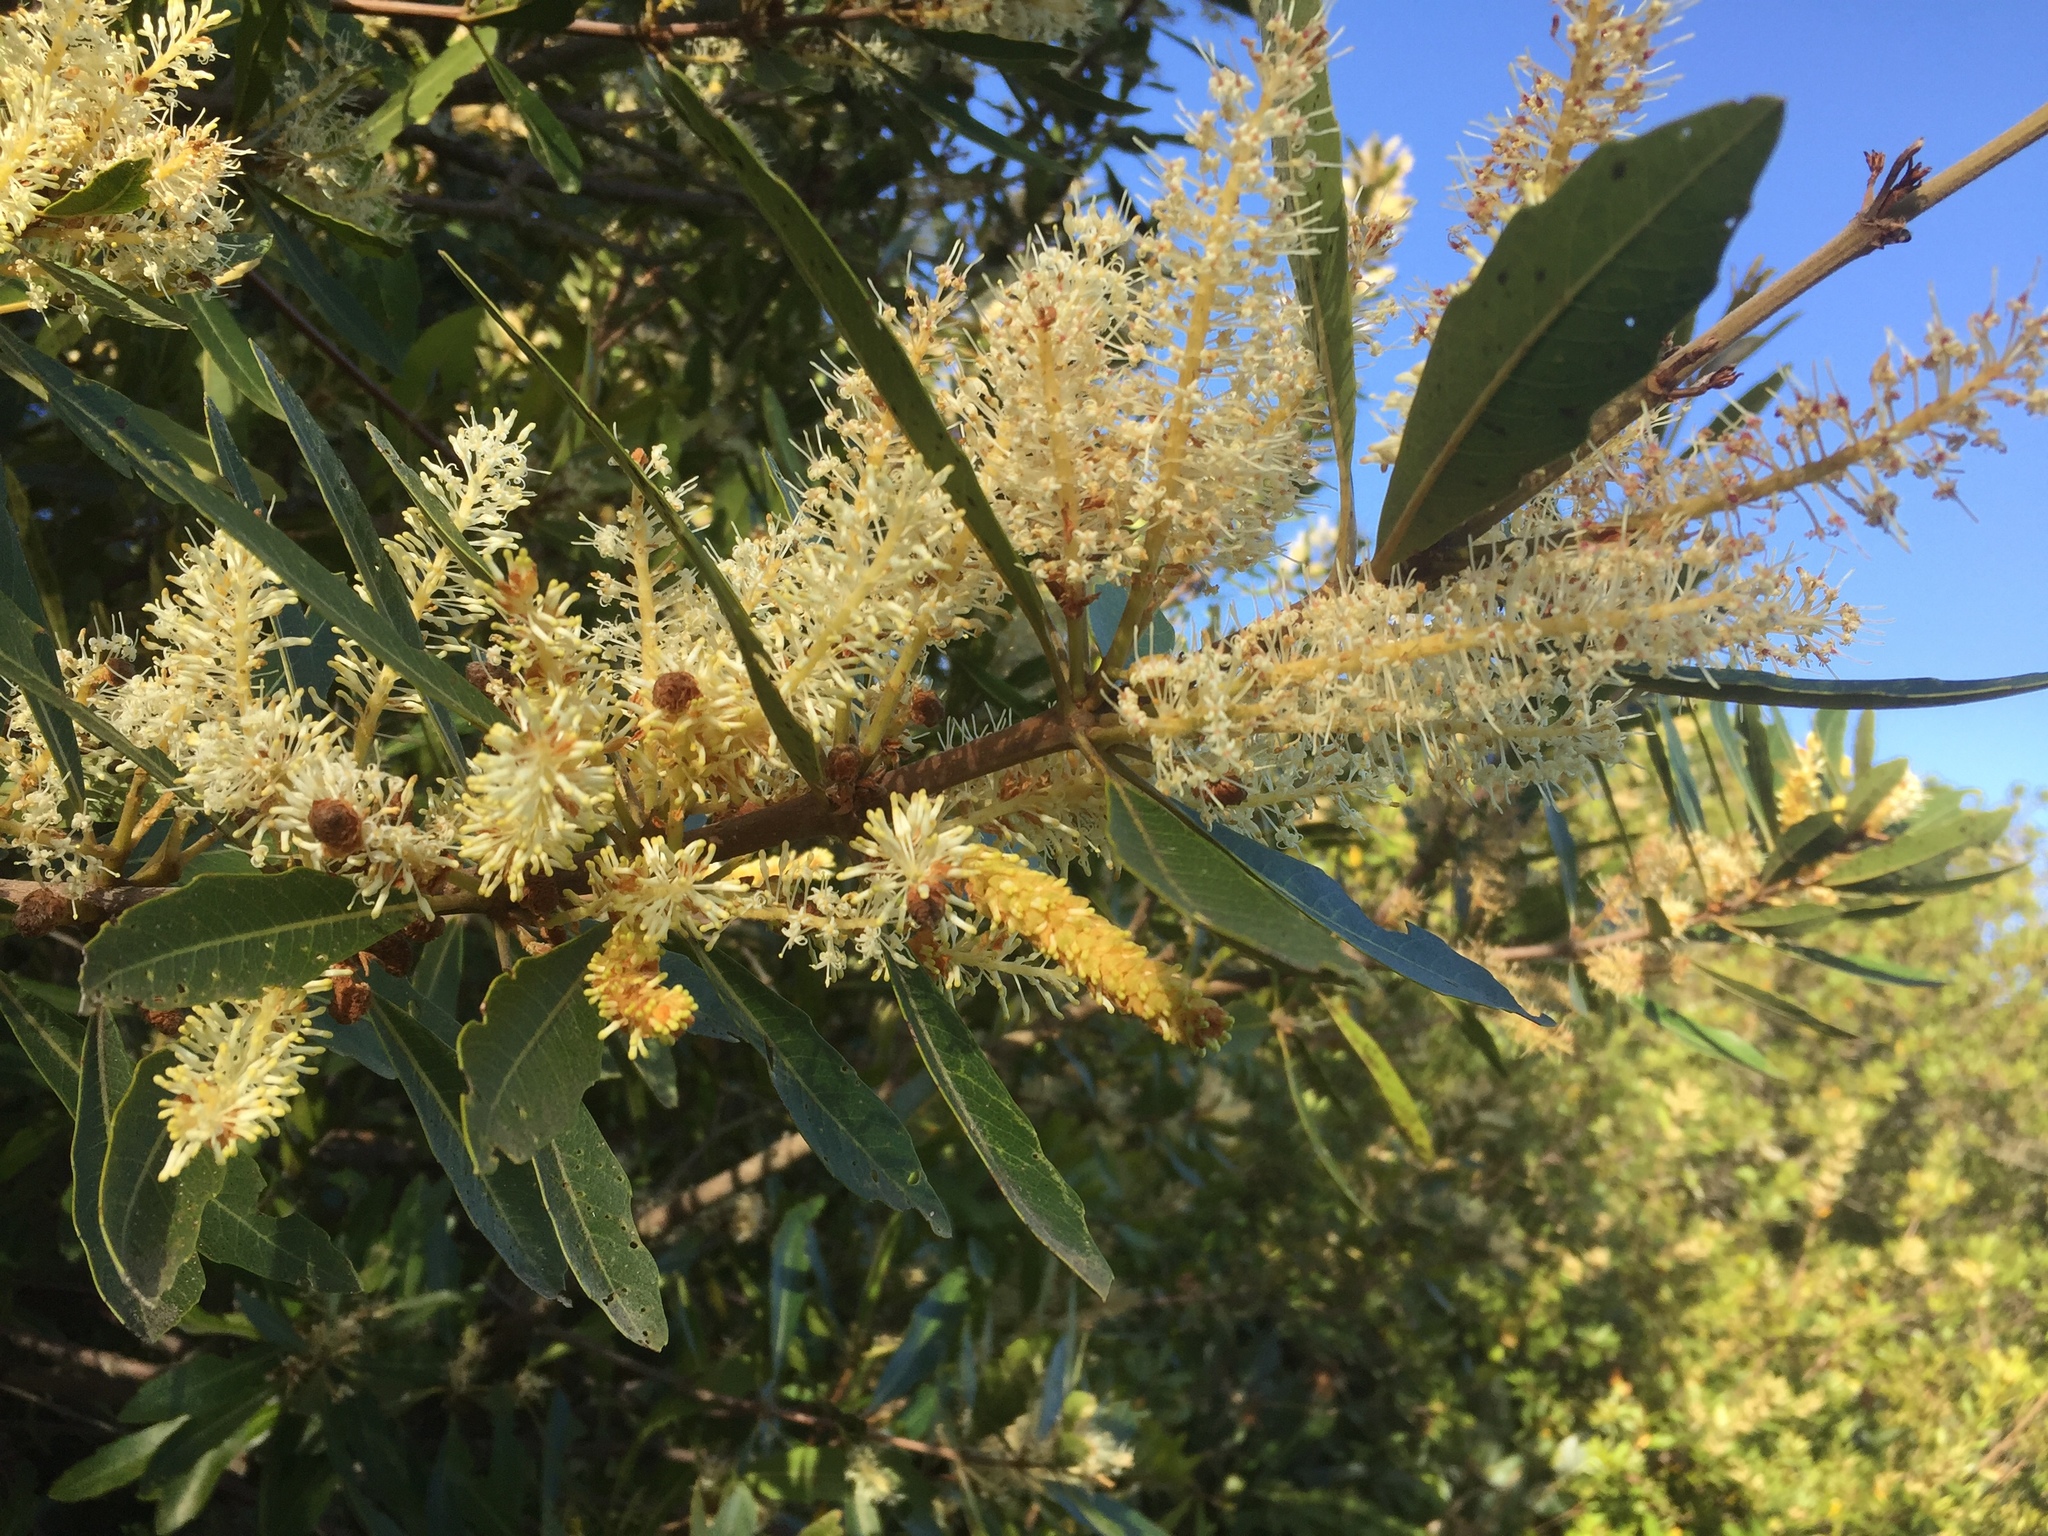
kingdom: Plantae
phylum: Tracheophyta
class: Magnoliopsida
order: Proteales
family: Proteaceae
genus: Brabejum
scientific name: Brabejum stellatifolium
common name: Wild almond
